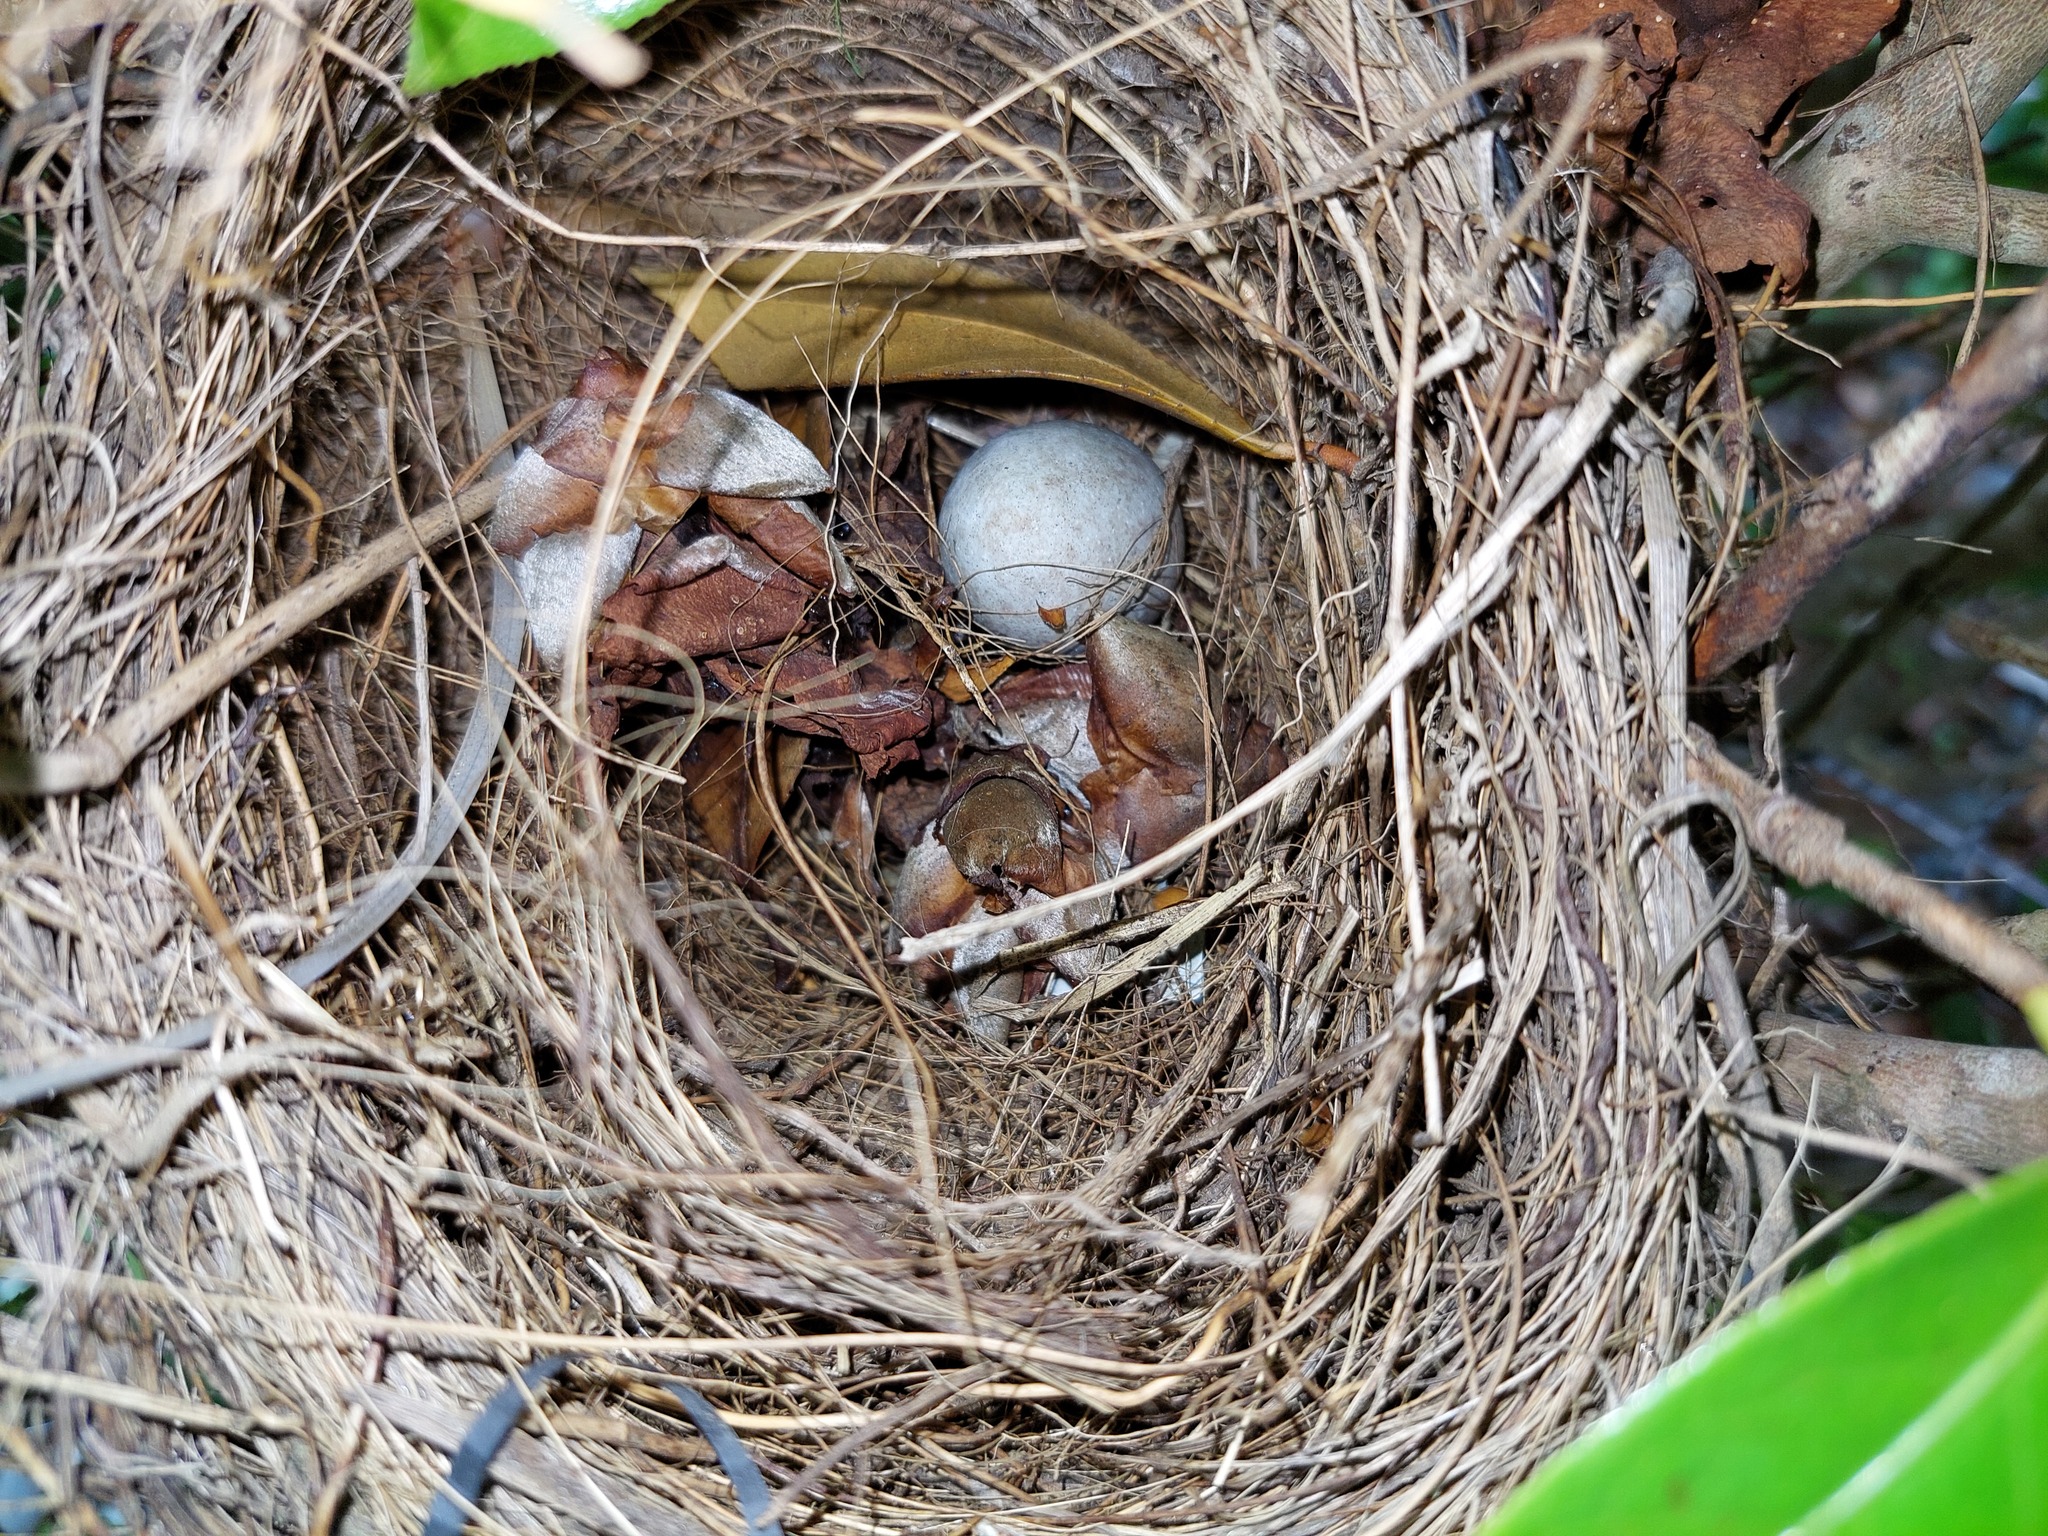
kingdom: Animalia
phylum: Chordata
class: Aves
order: Passeriformes
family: Turdidae
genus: Turdus
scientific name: Turdus merula
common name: Common blackbird
